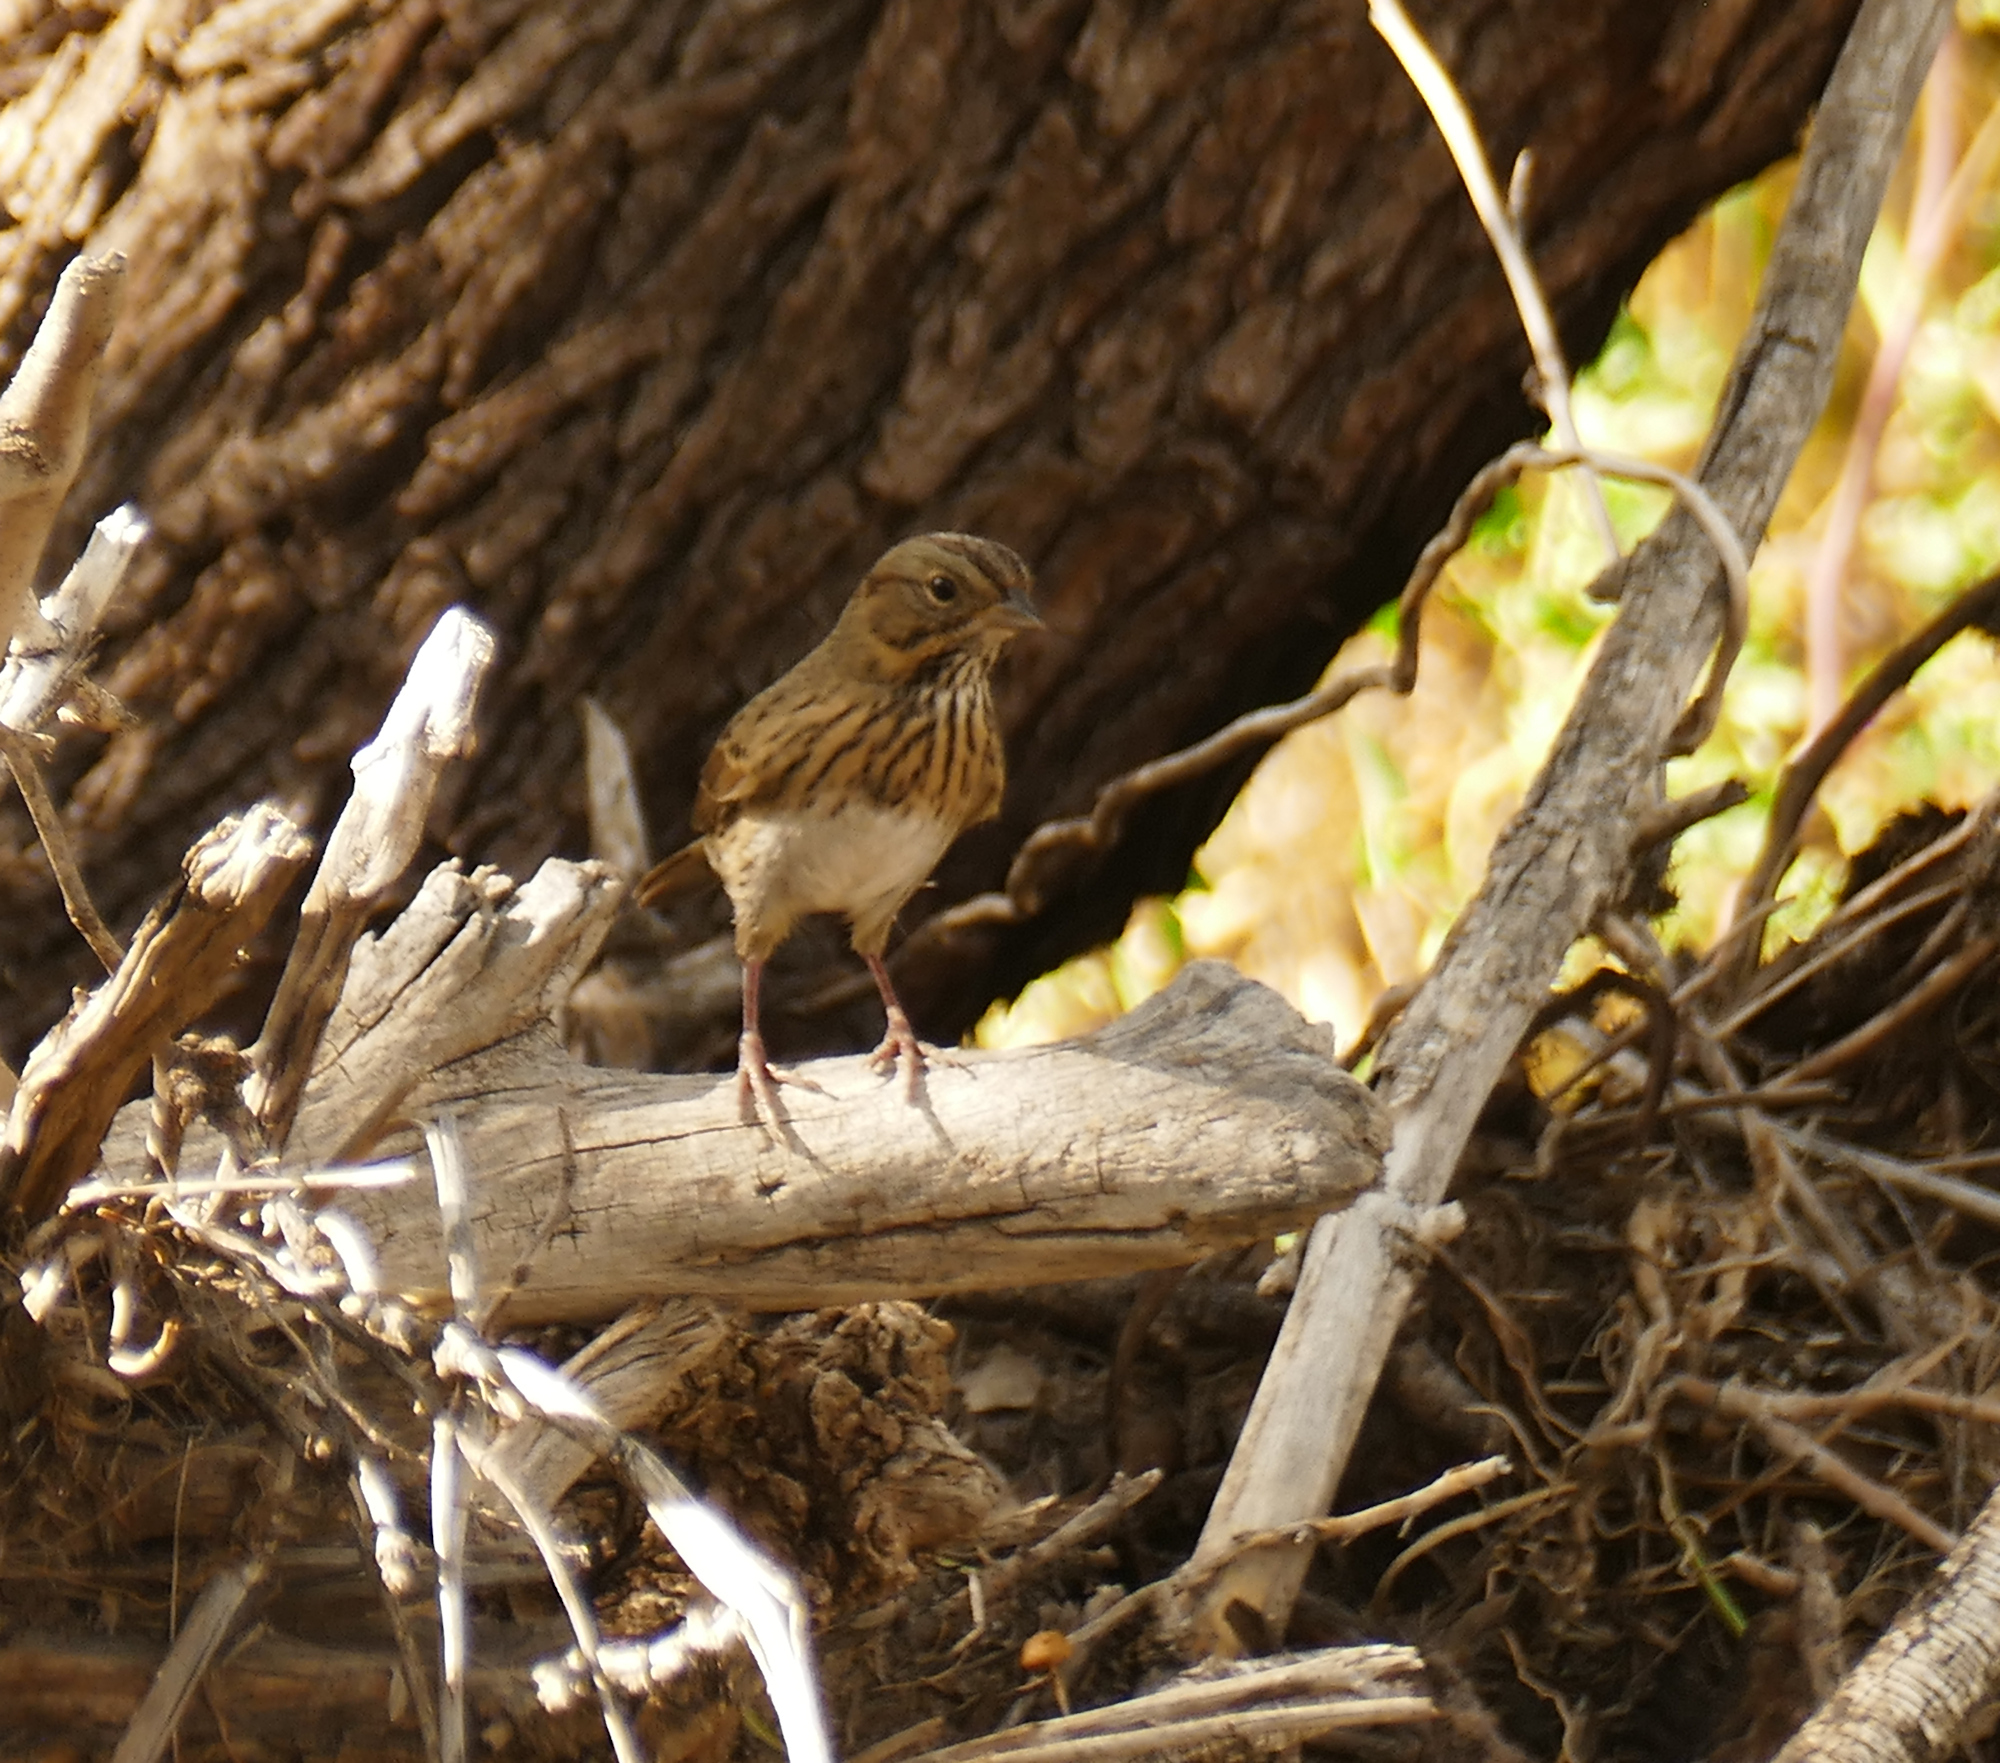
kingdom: Animalia
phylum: Chordata
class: Aves
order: Passeriformes
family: Passerellidae
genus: Melospiza
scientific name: Melospiza lincolnii
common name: Lincoln's sparrow
